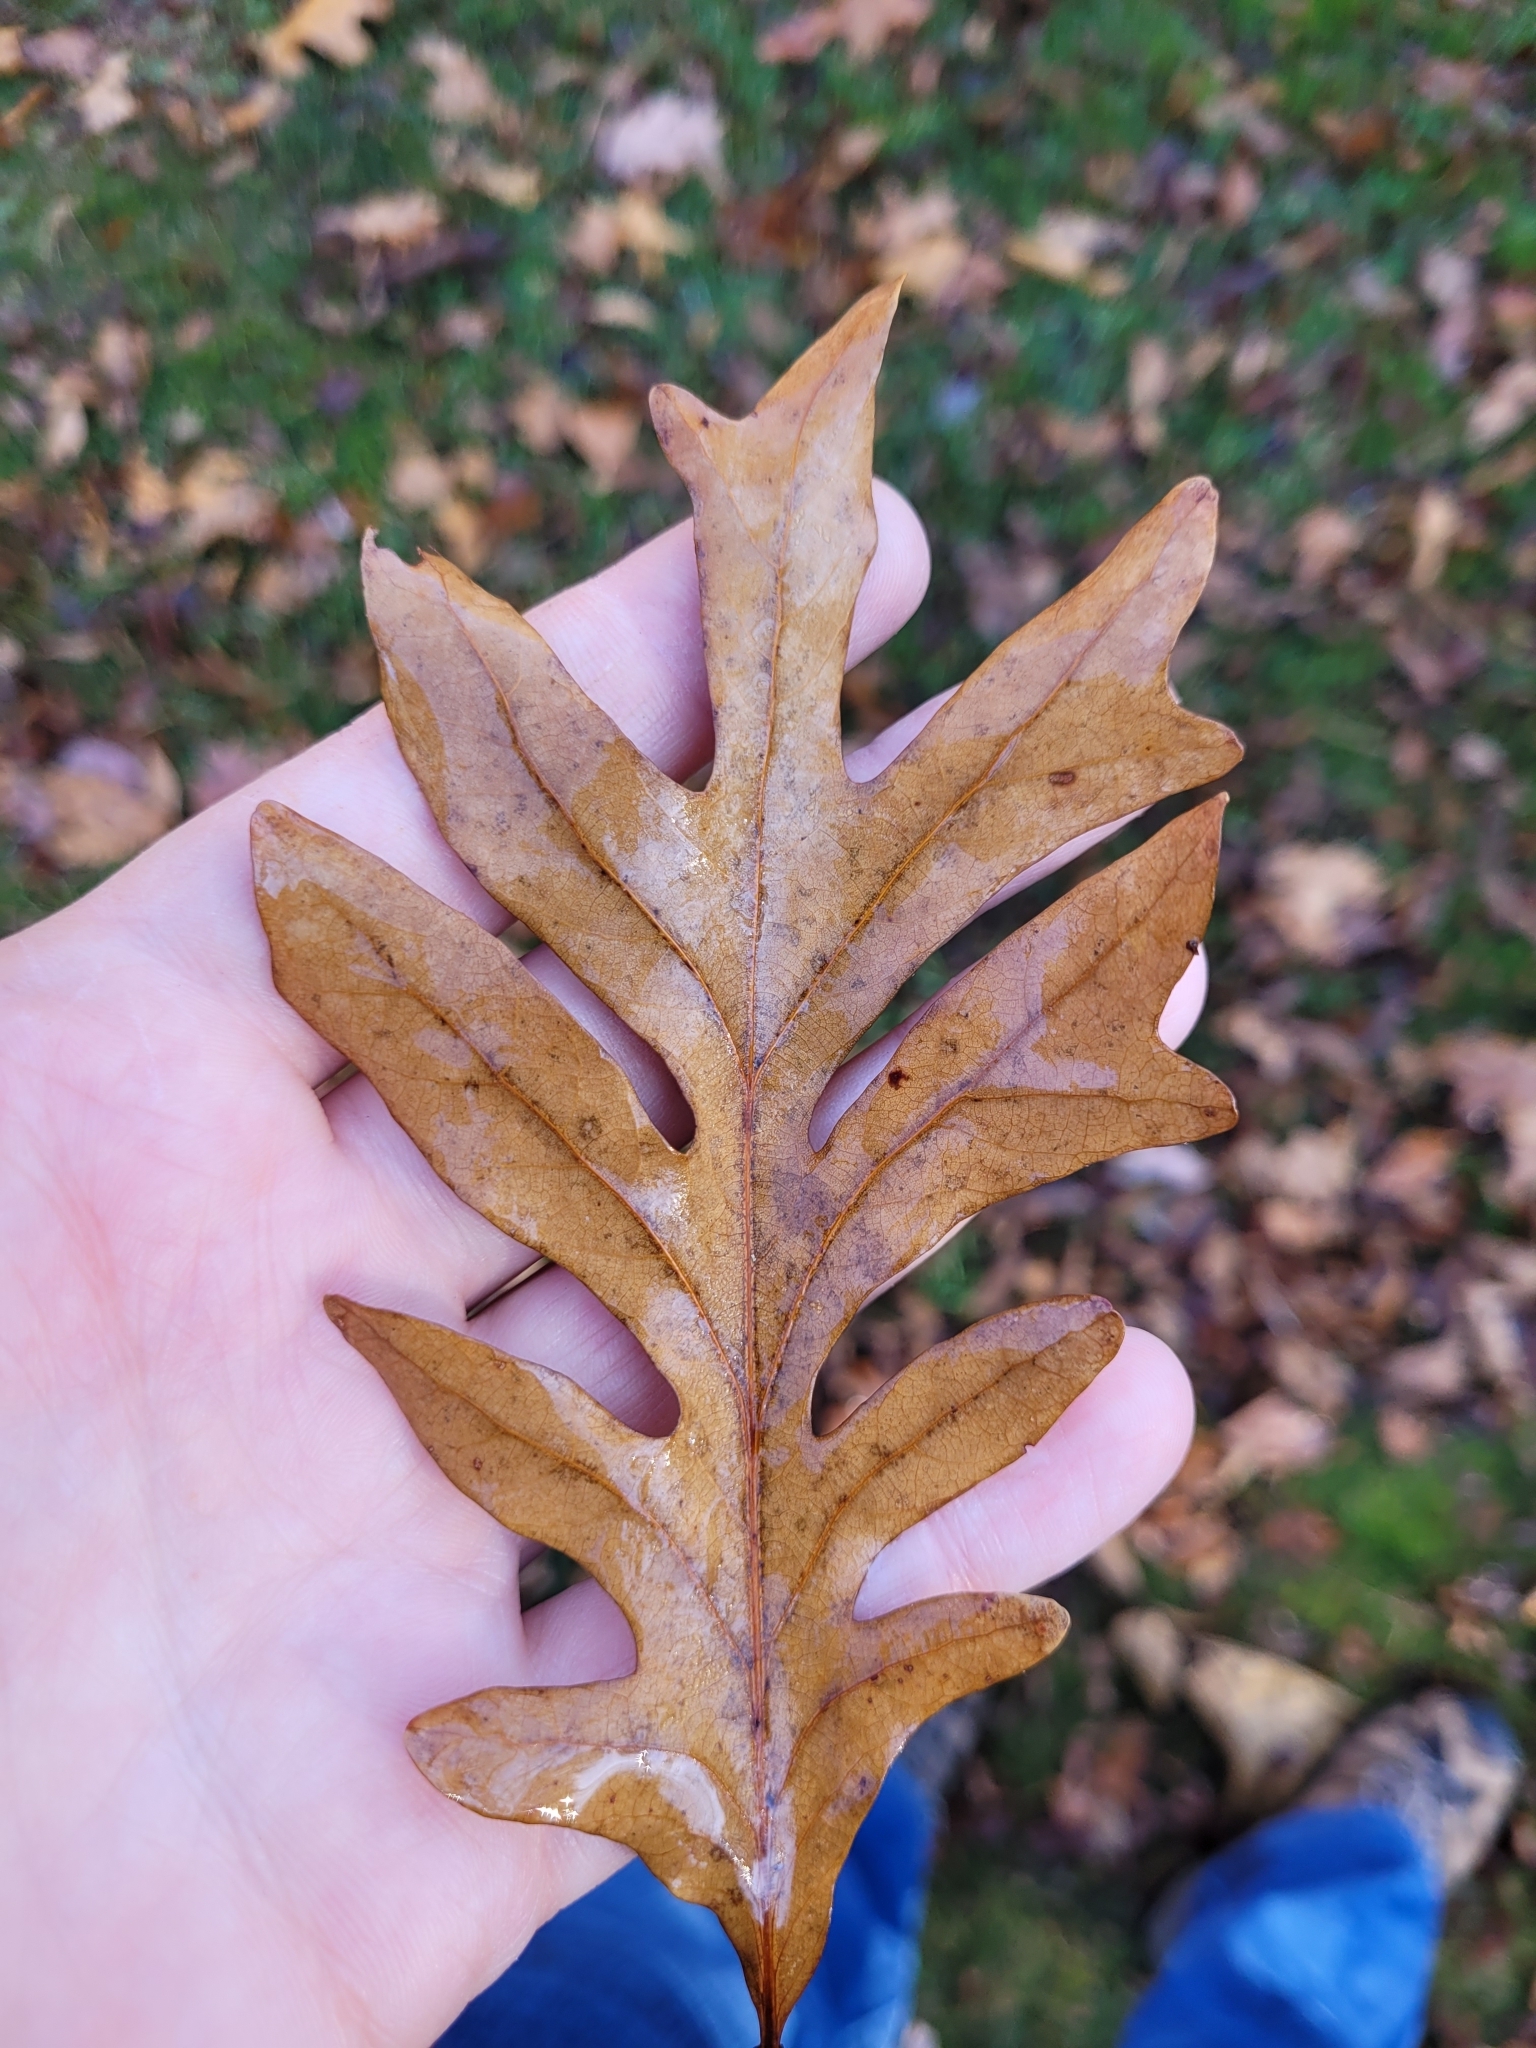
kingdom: Plantae
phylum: Tracheophyta
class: Magnoliopsida
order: Fagales
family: Fagaceae
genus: Quercus
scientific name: Quercus alba
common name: White oak
